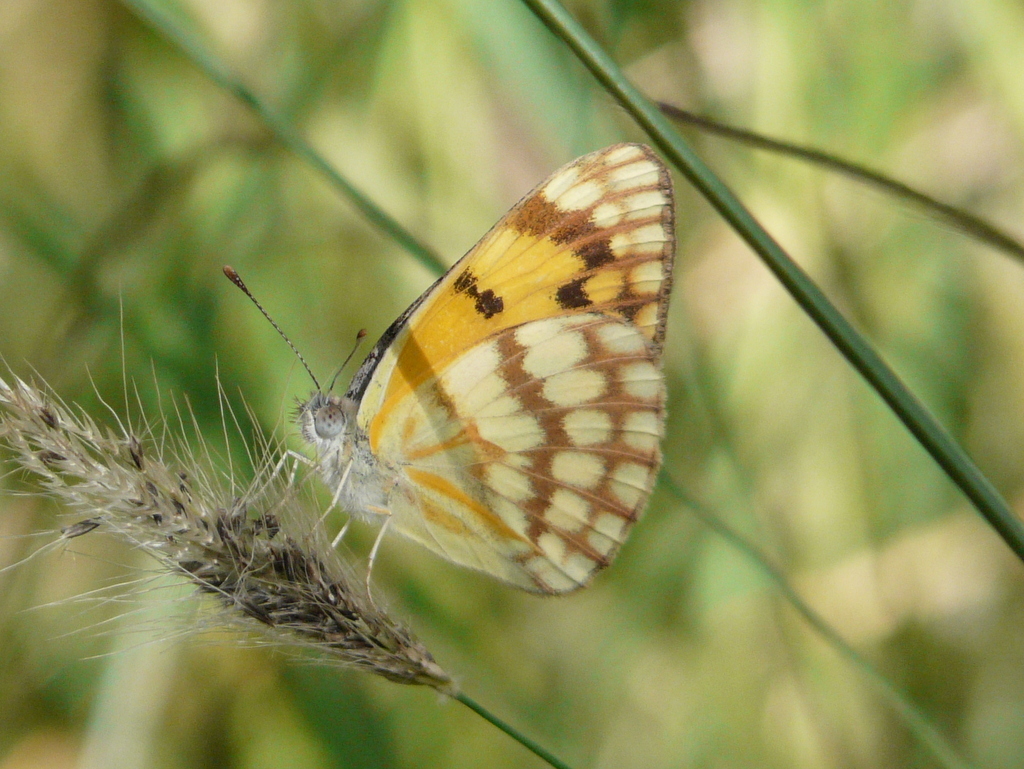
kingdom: Animalia
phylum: Arthropoda
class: Insecta
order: Lepidoptera
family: Pieridae
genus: Colotis
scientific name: Colotis vesta
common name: Veined golden arab
